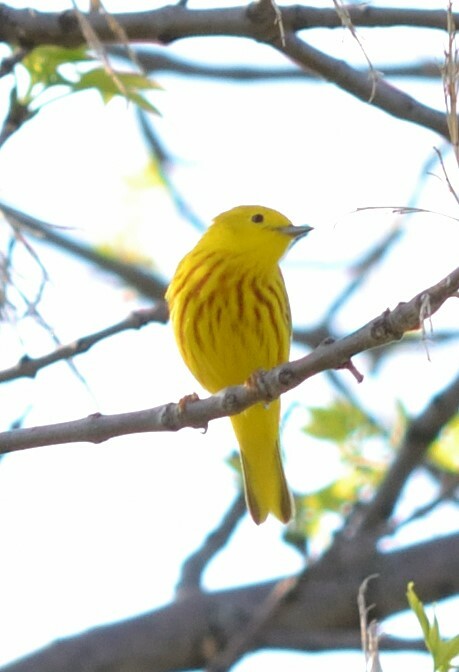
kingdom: Animalia
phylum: Chordata
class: Aves
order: Passeriformes
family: Parulidae
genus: Setophaga
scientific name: Setophaga petechia
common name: Yellow warbler
